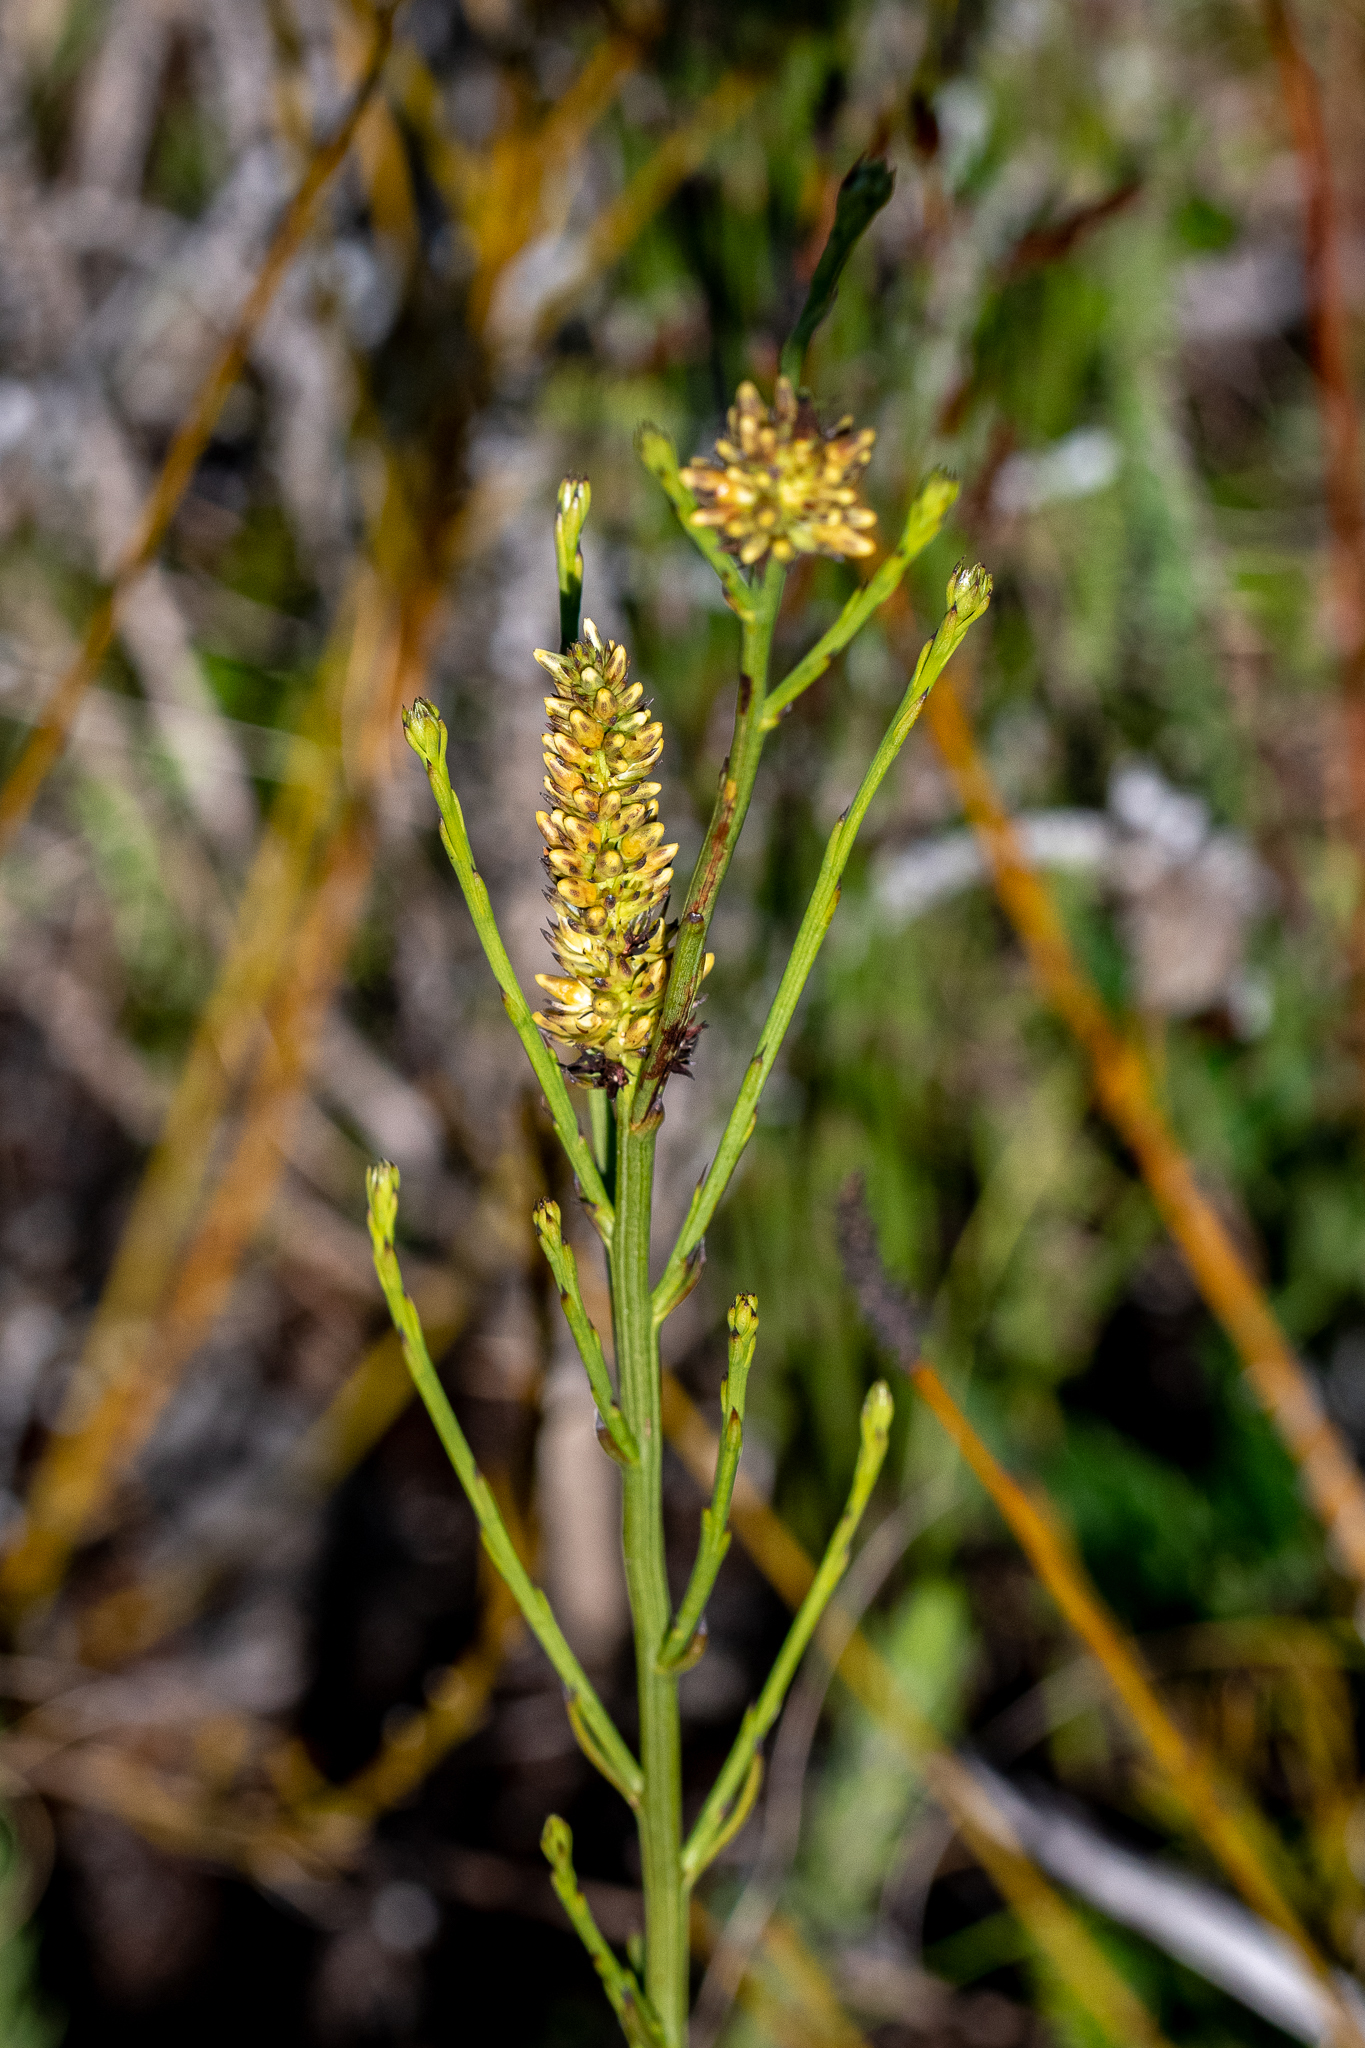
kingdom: Plantae
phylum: Tracheophyta
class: Magnoliopsida
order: Santalales
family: Thesiaceae
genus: Thesium
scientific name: Thesium spicatum
